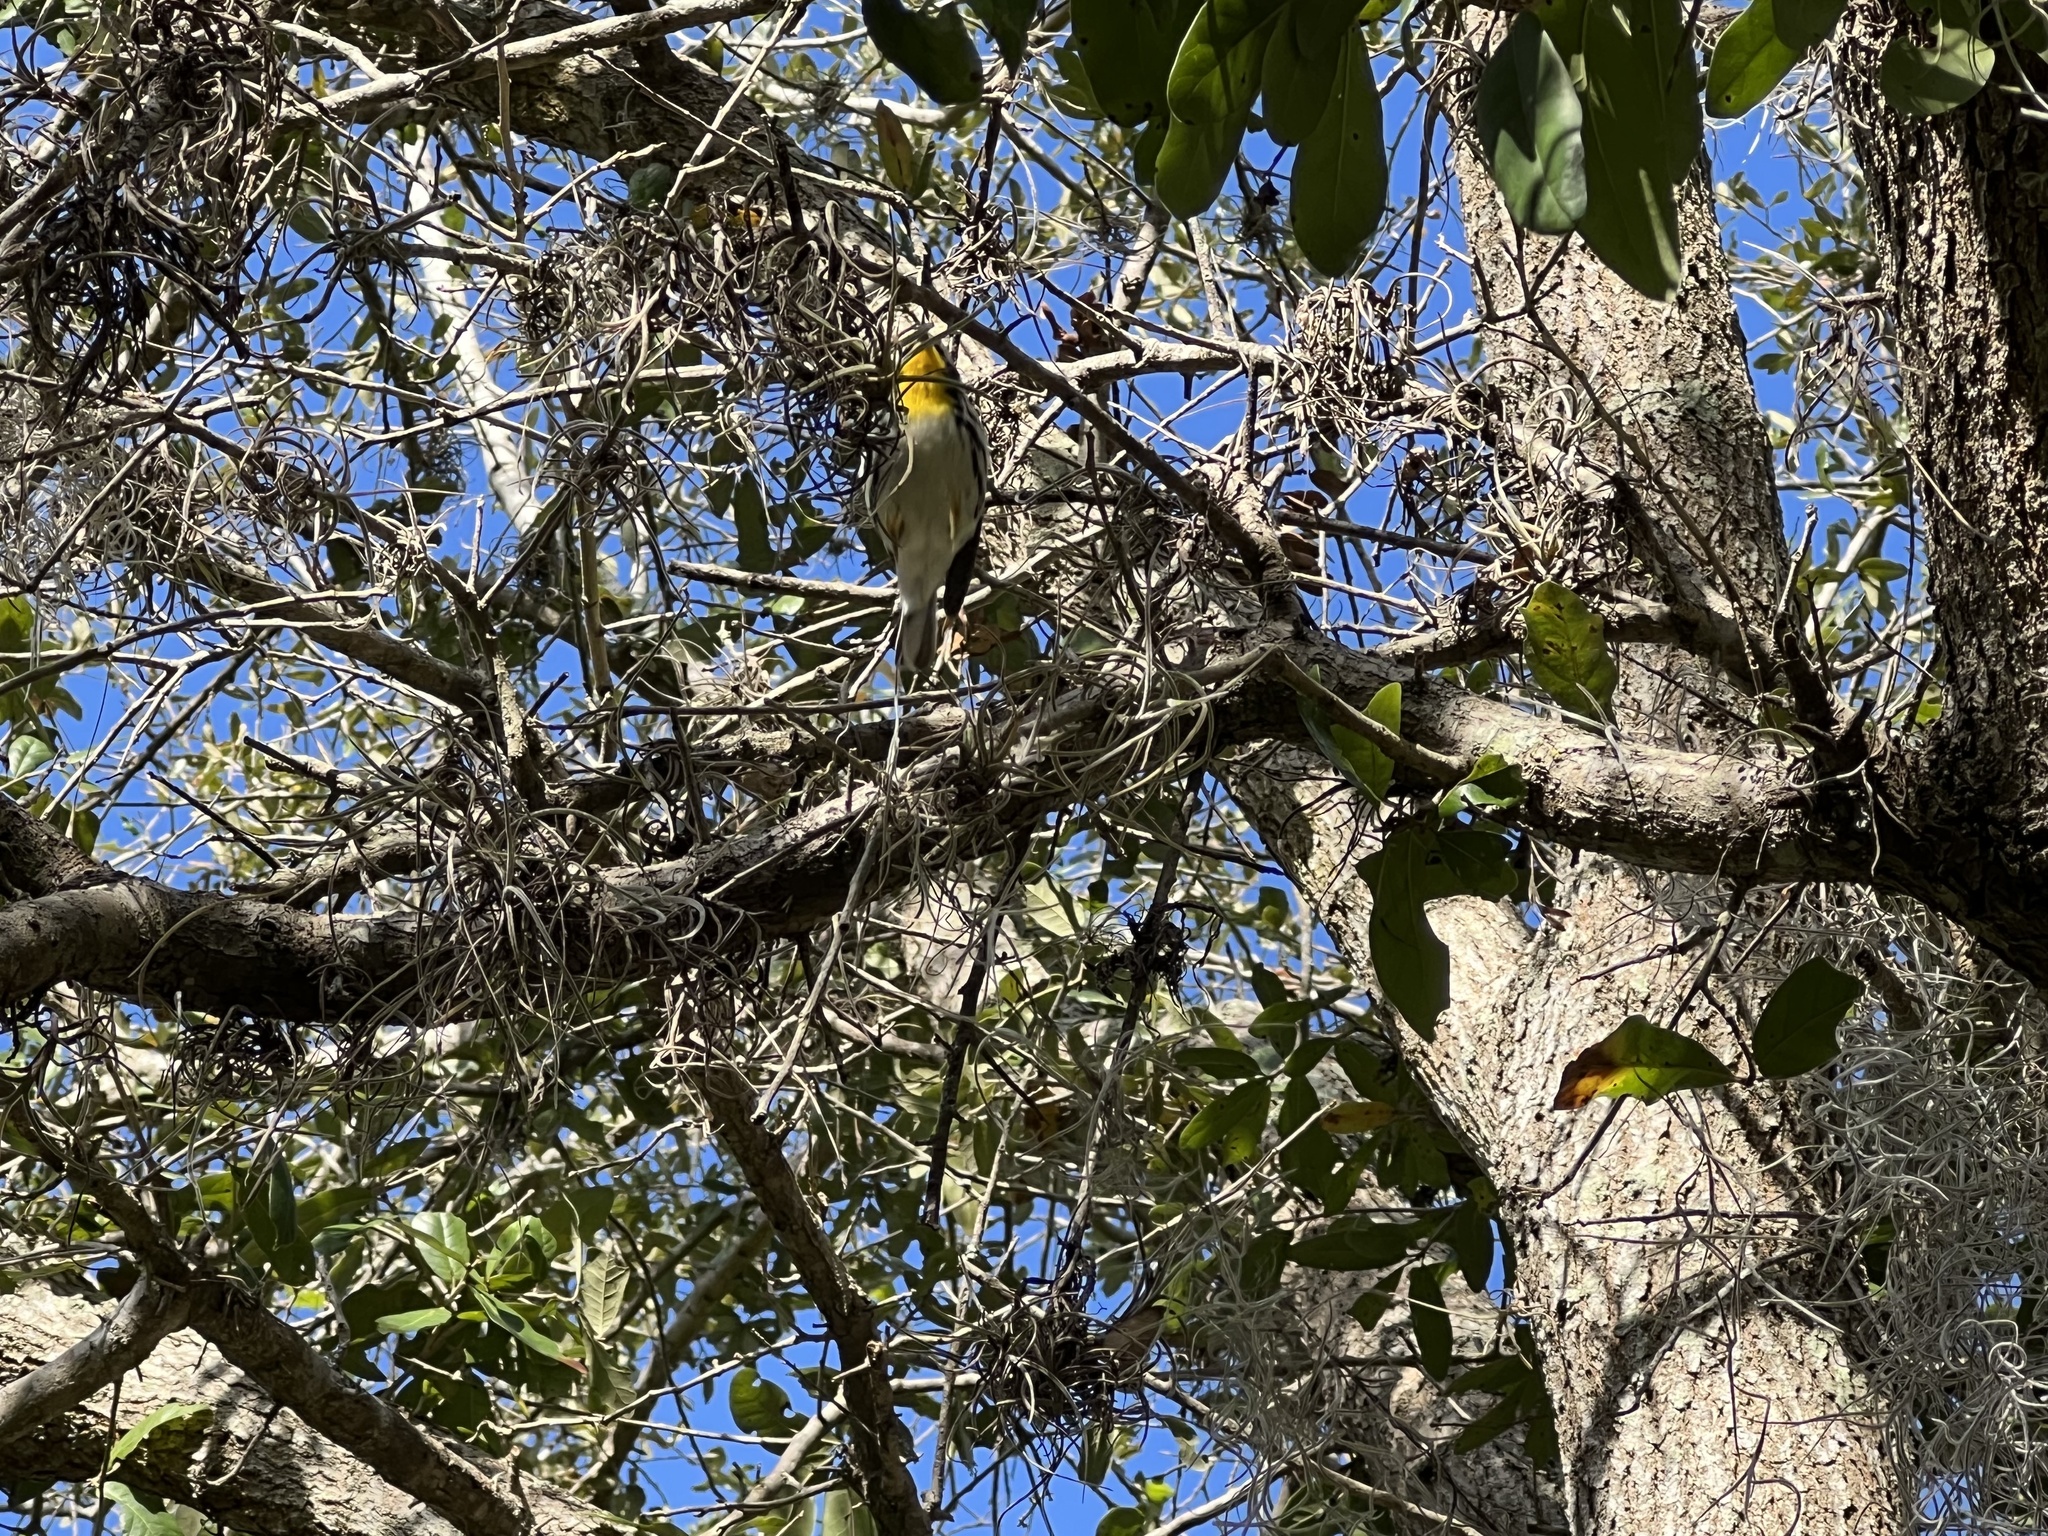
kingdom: Animalia
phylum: Chordata
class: Aves
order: Passeriformes
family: Parulidae
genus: Setophaga
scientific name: Setophaga dominica
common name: Yellow-throated warbler
